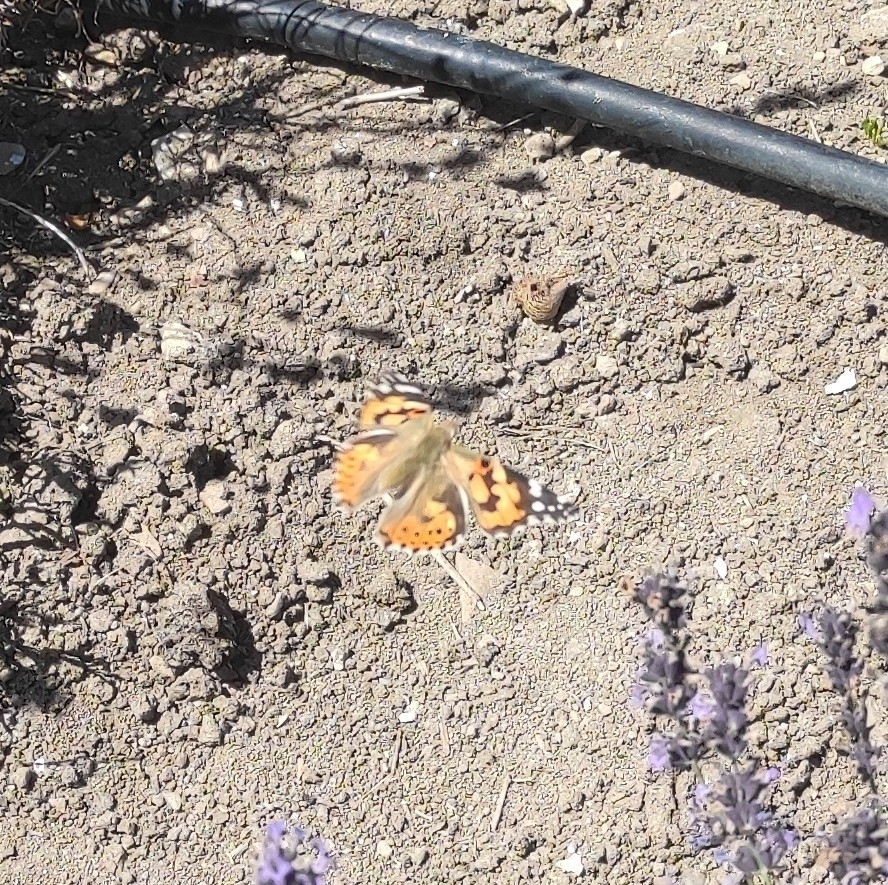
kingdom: Animalia
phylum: Arthropoda
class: Insecta
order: Lepidoptera
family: Nymphalidae
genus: Vanessa
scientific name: Vanessa cardui
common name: Painted lady
